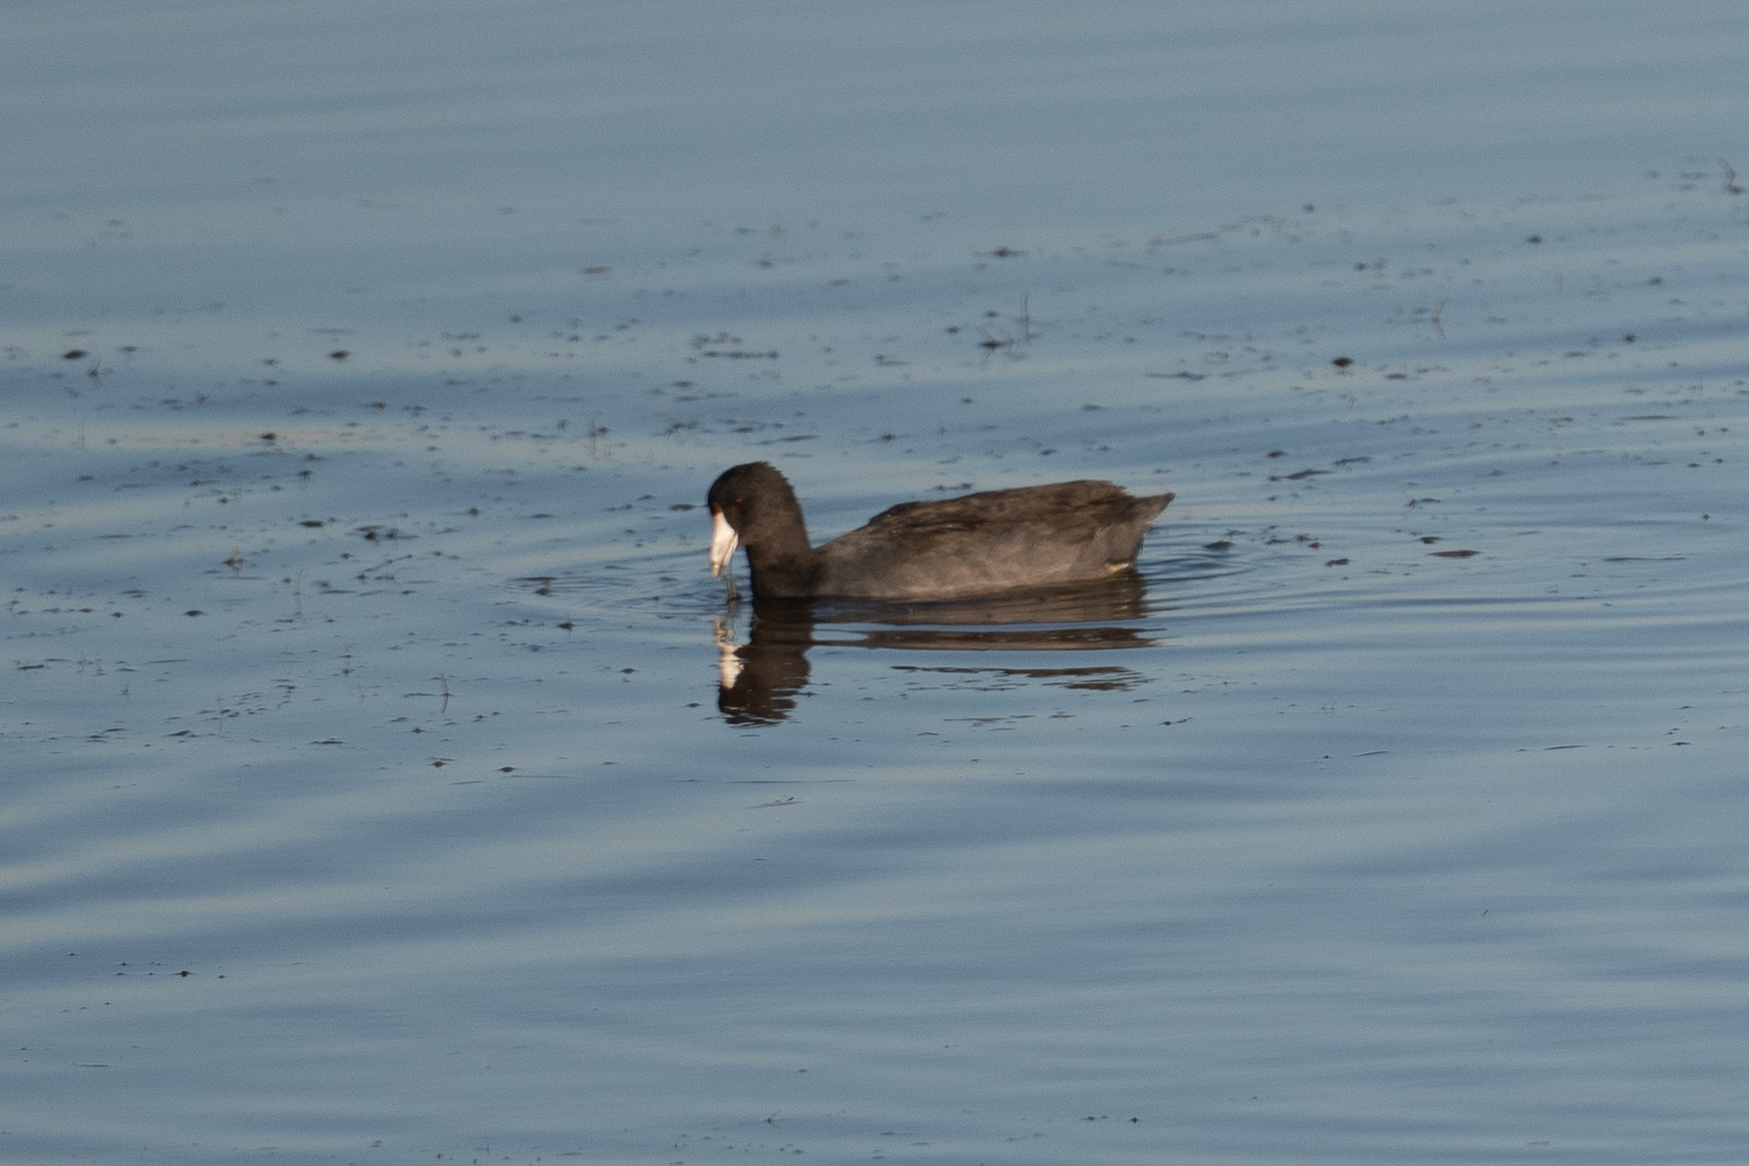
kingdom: Animalia
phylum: Chordata
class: Aves
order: Gruiformes
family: Rallidae
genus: Fulica
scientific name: Fulica americana
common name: American coot
